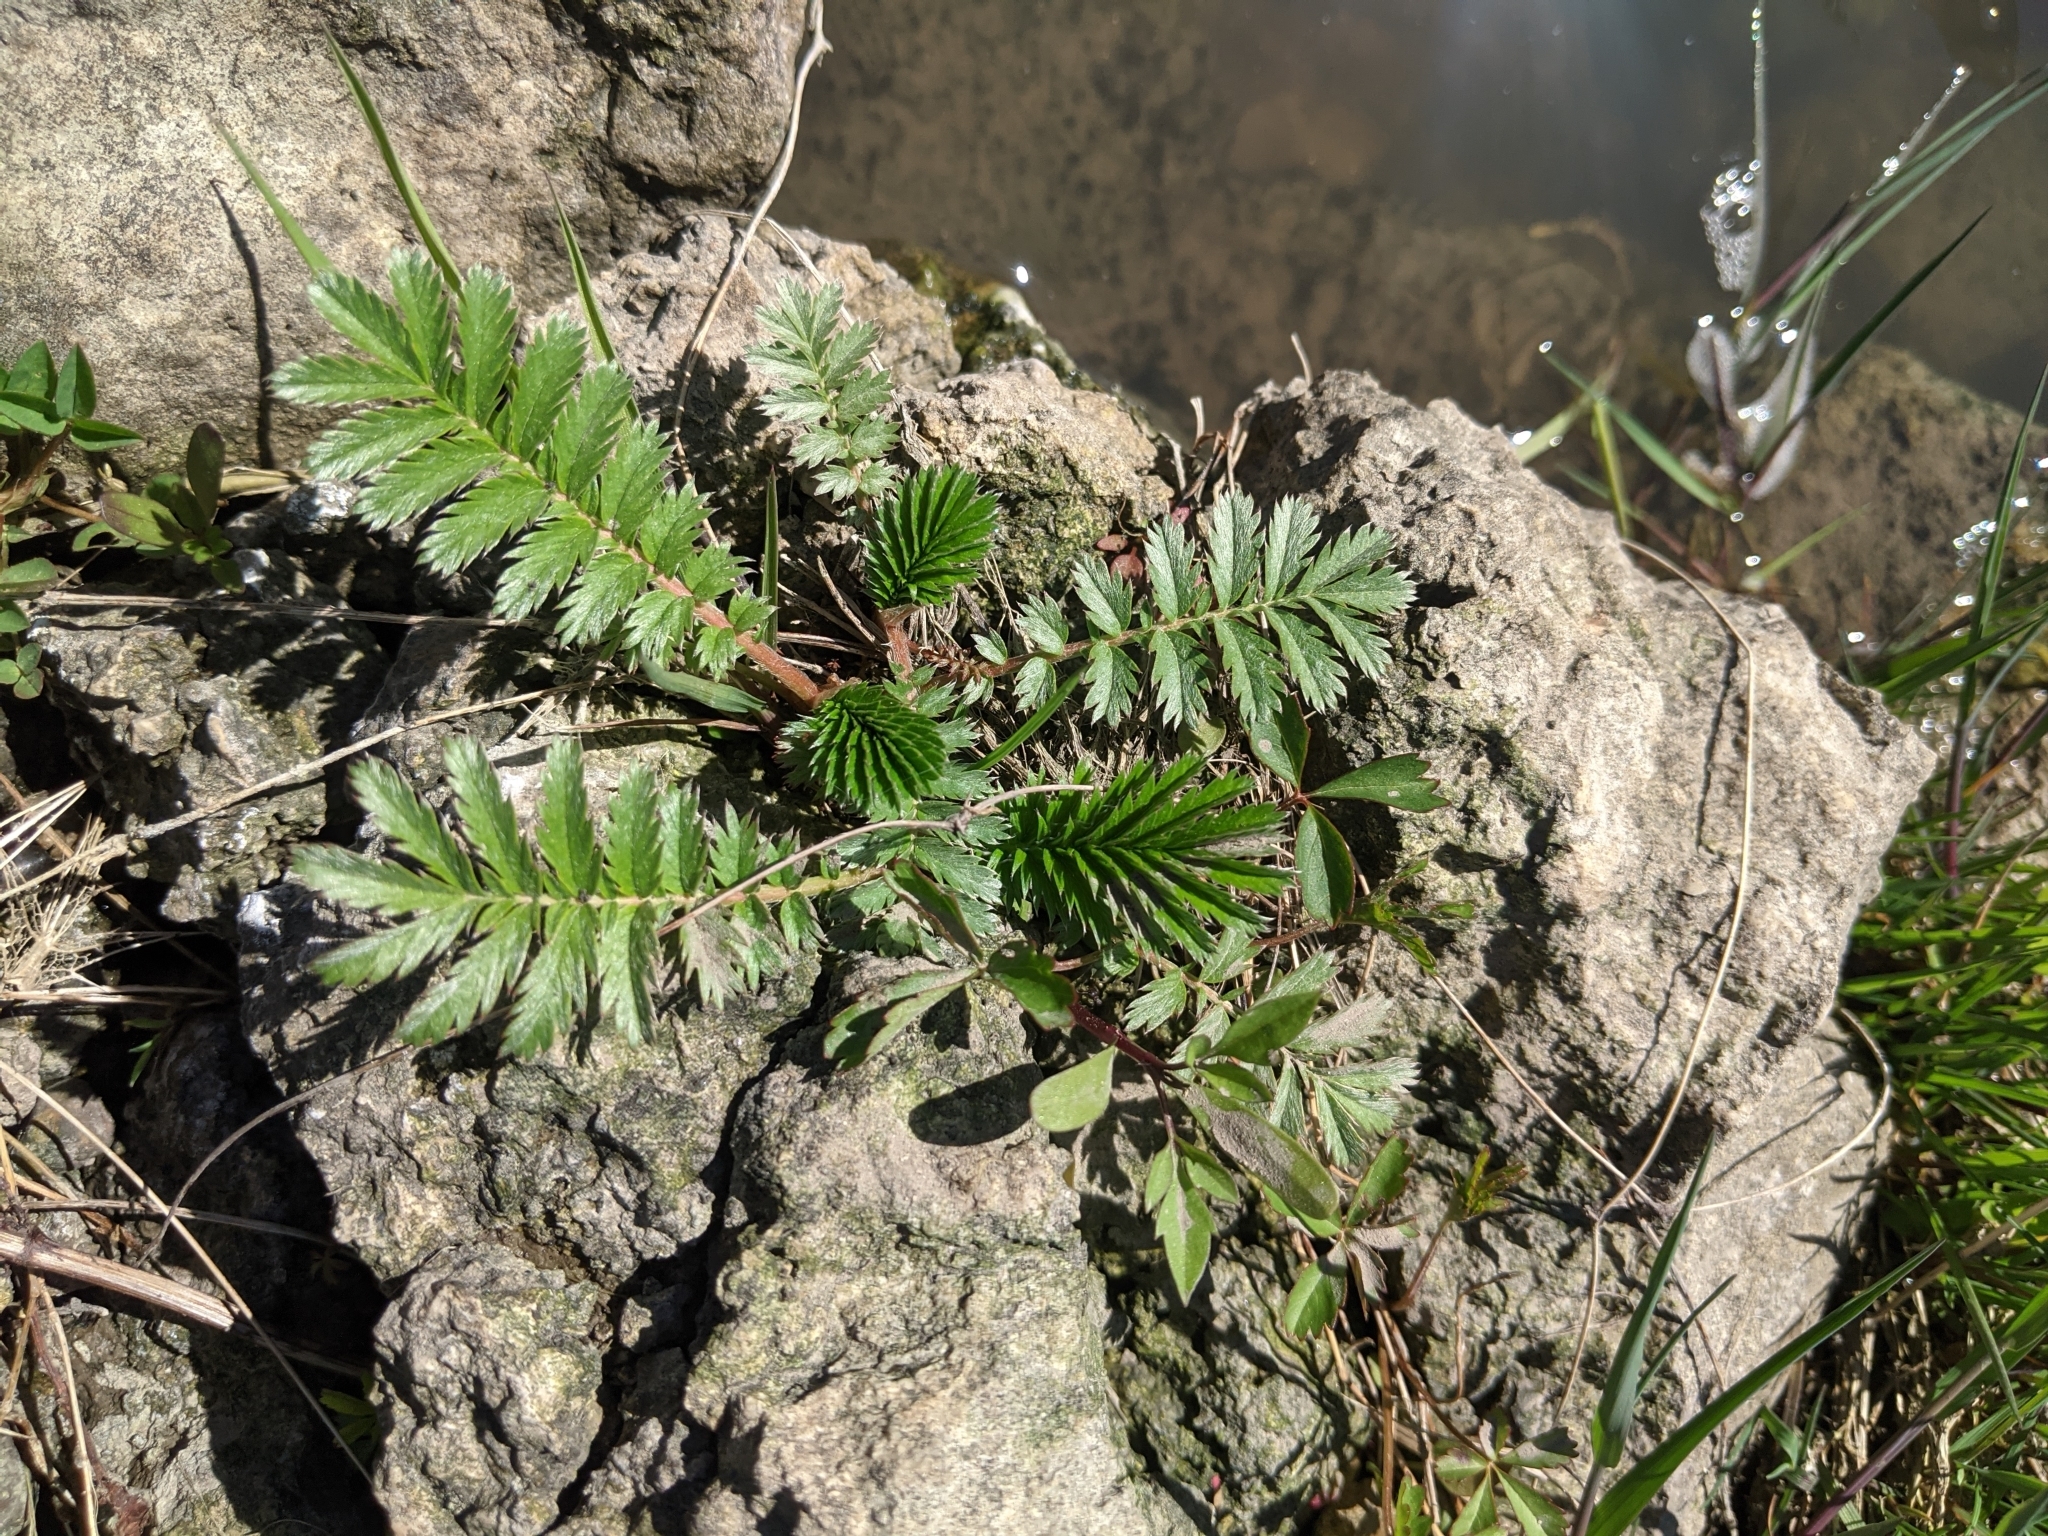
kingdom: Plantae
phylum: Tracheophyta
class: Magnoliopsida
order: Rosales
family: Rosaceae
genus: Argentina
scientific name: Argentina anserina
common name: Common silverweed
